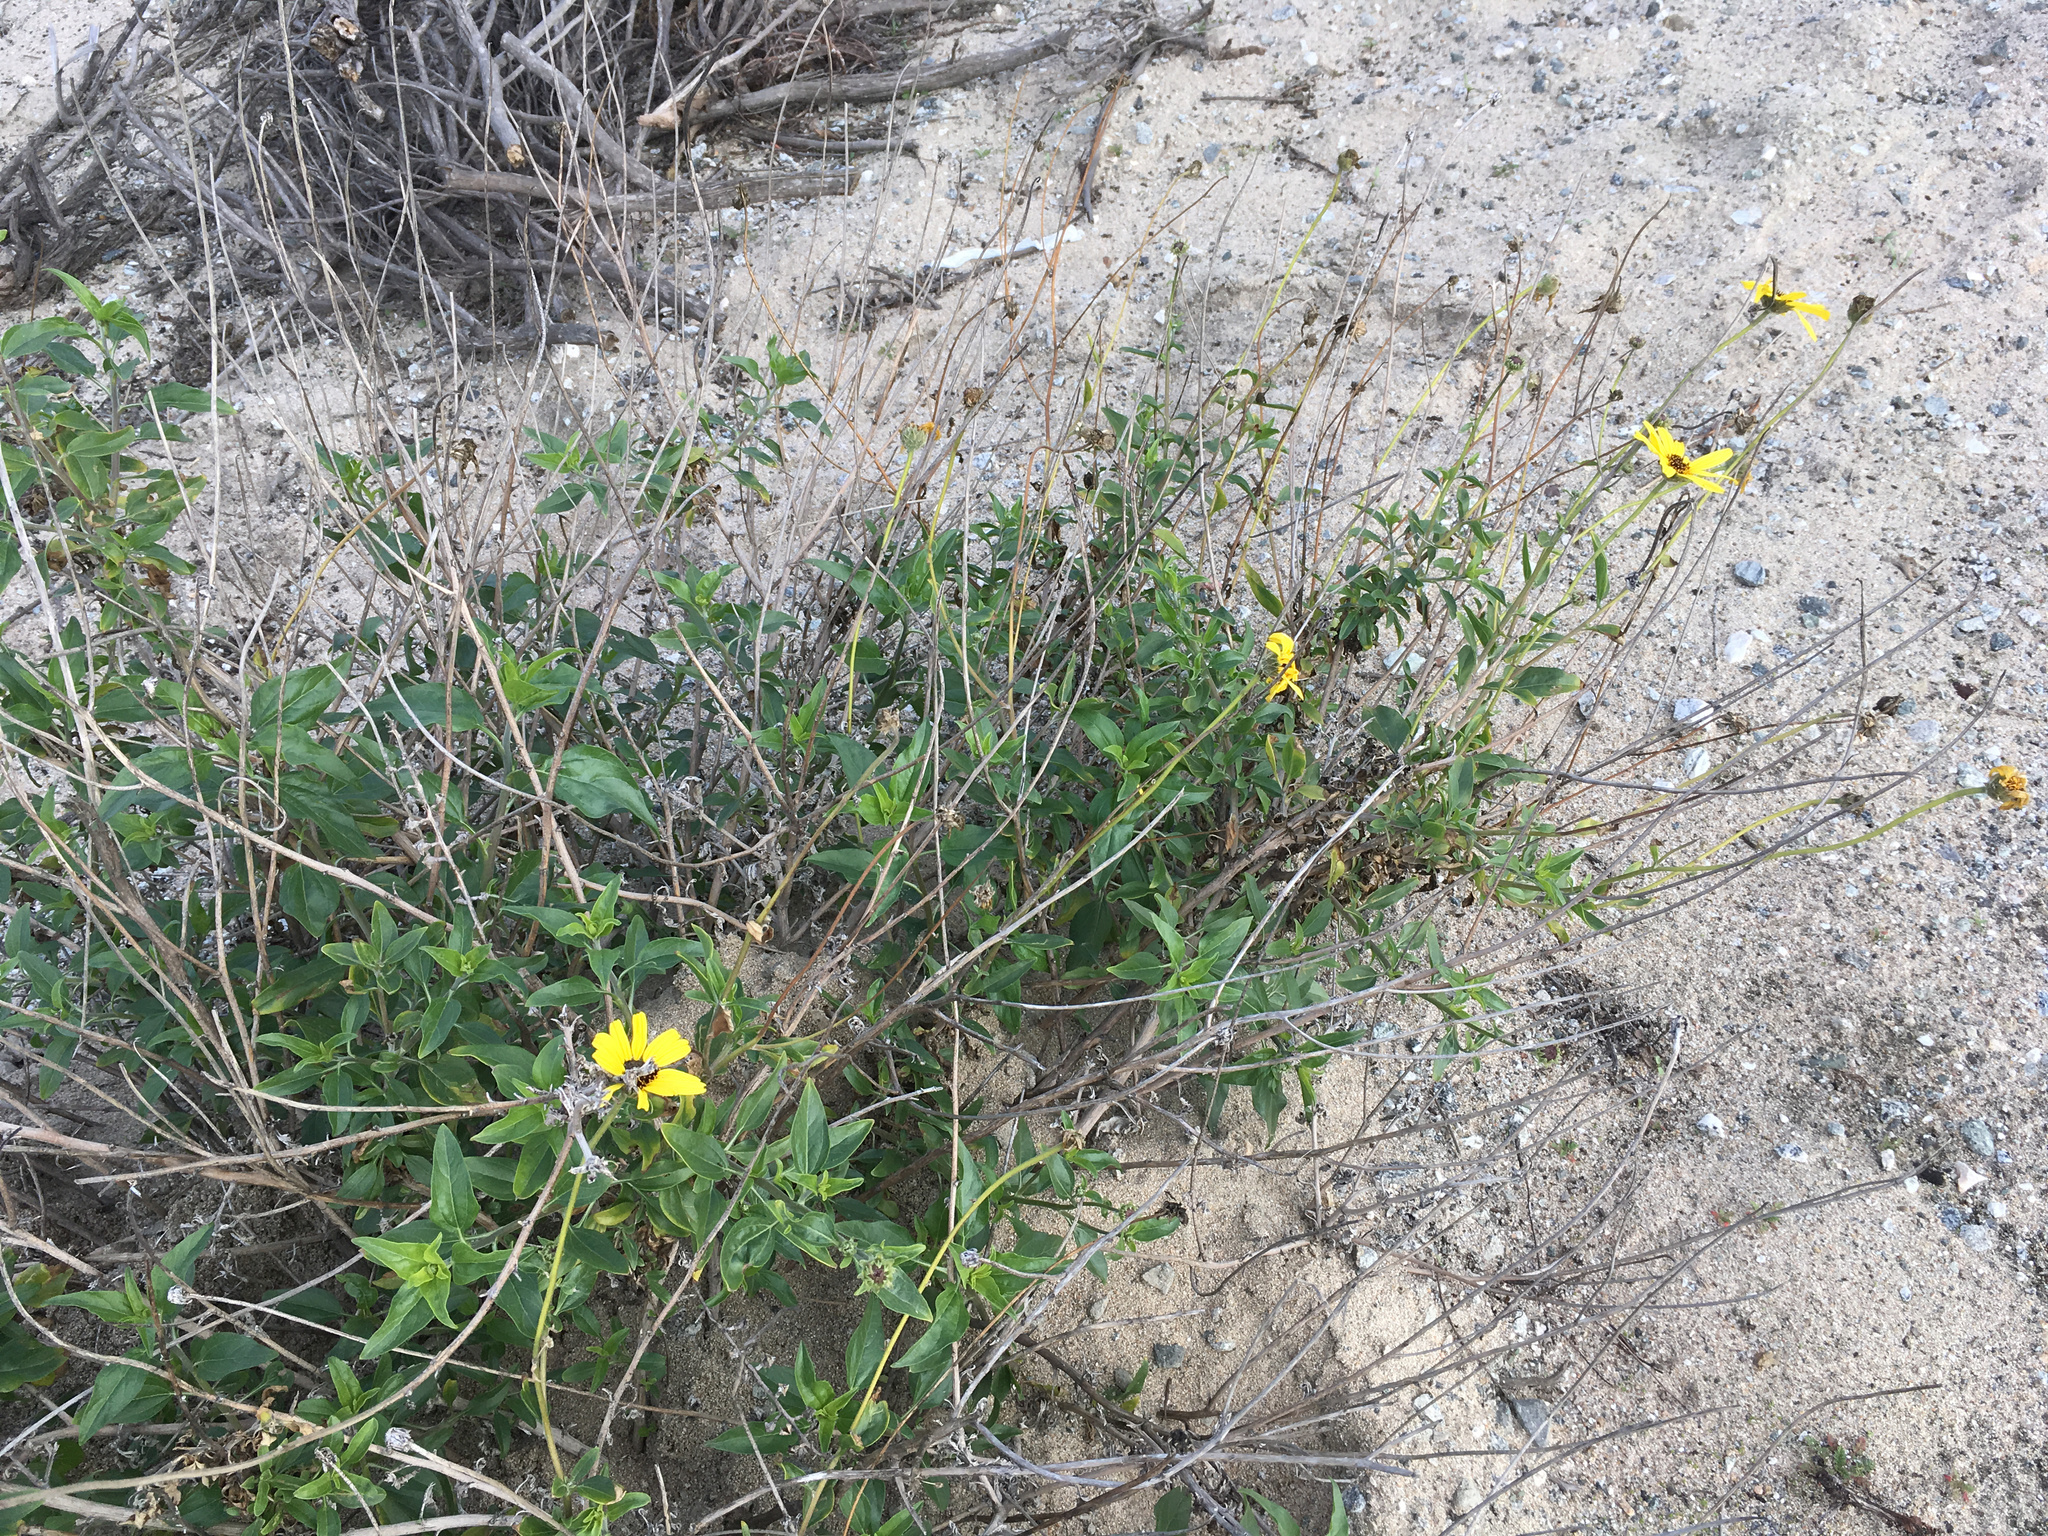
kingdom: Plantae
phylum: Tracheophyta
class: Magnoliopsida
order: Asterales
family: Asteraceae
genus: Encelia
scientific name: Encelia californica
